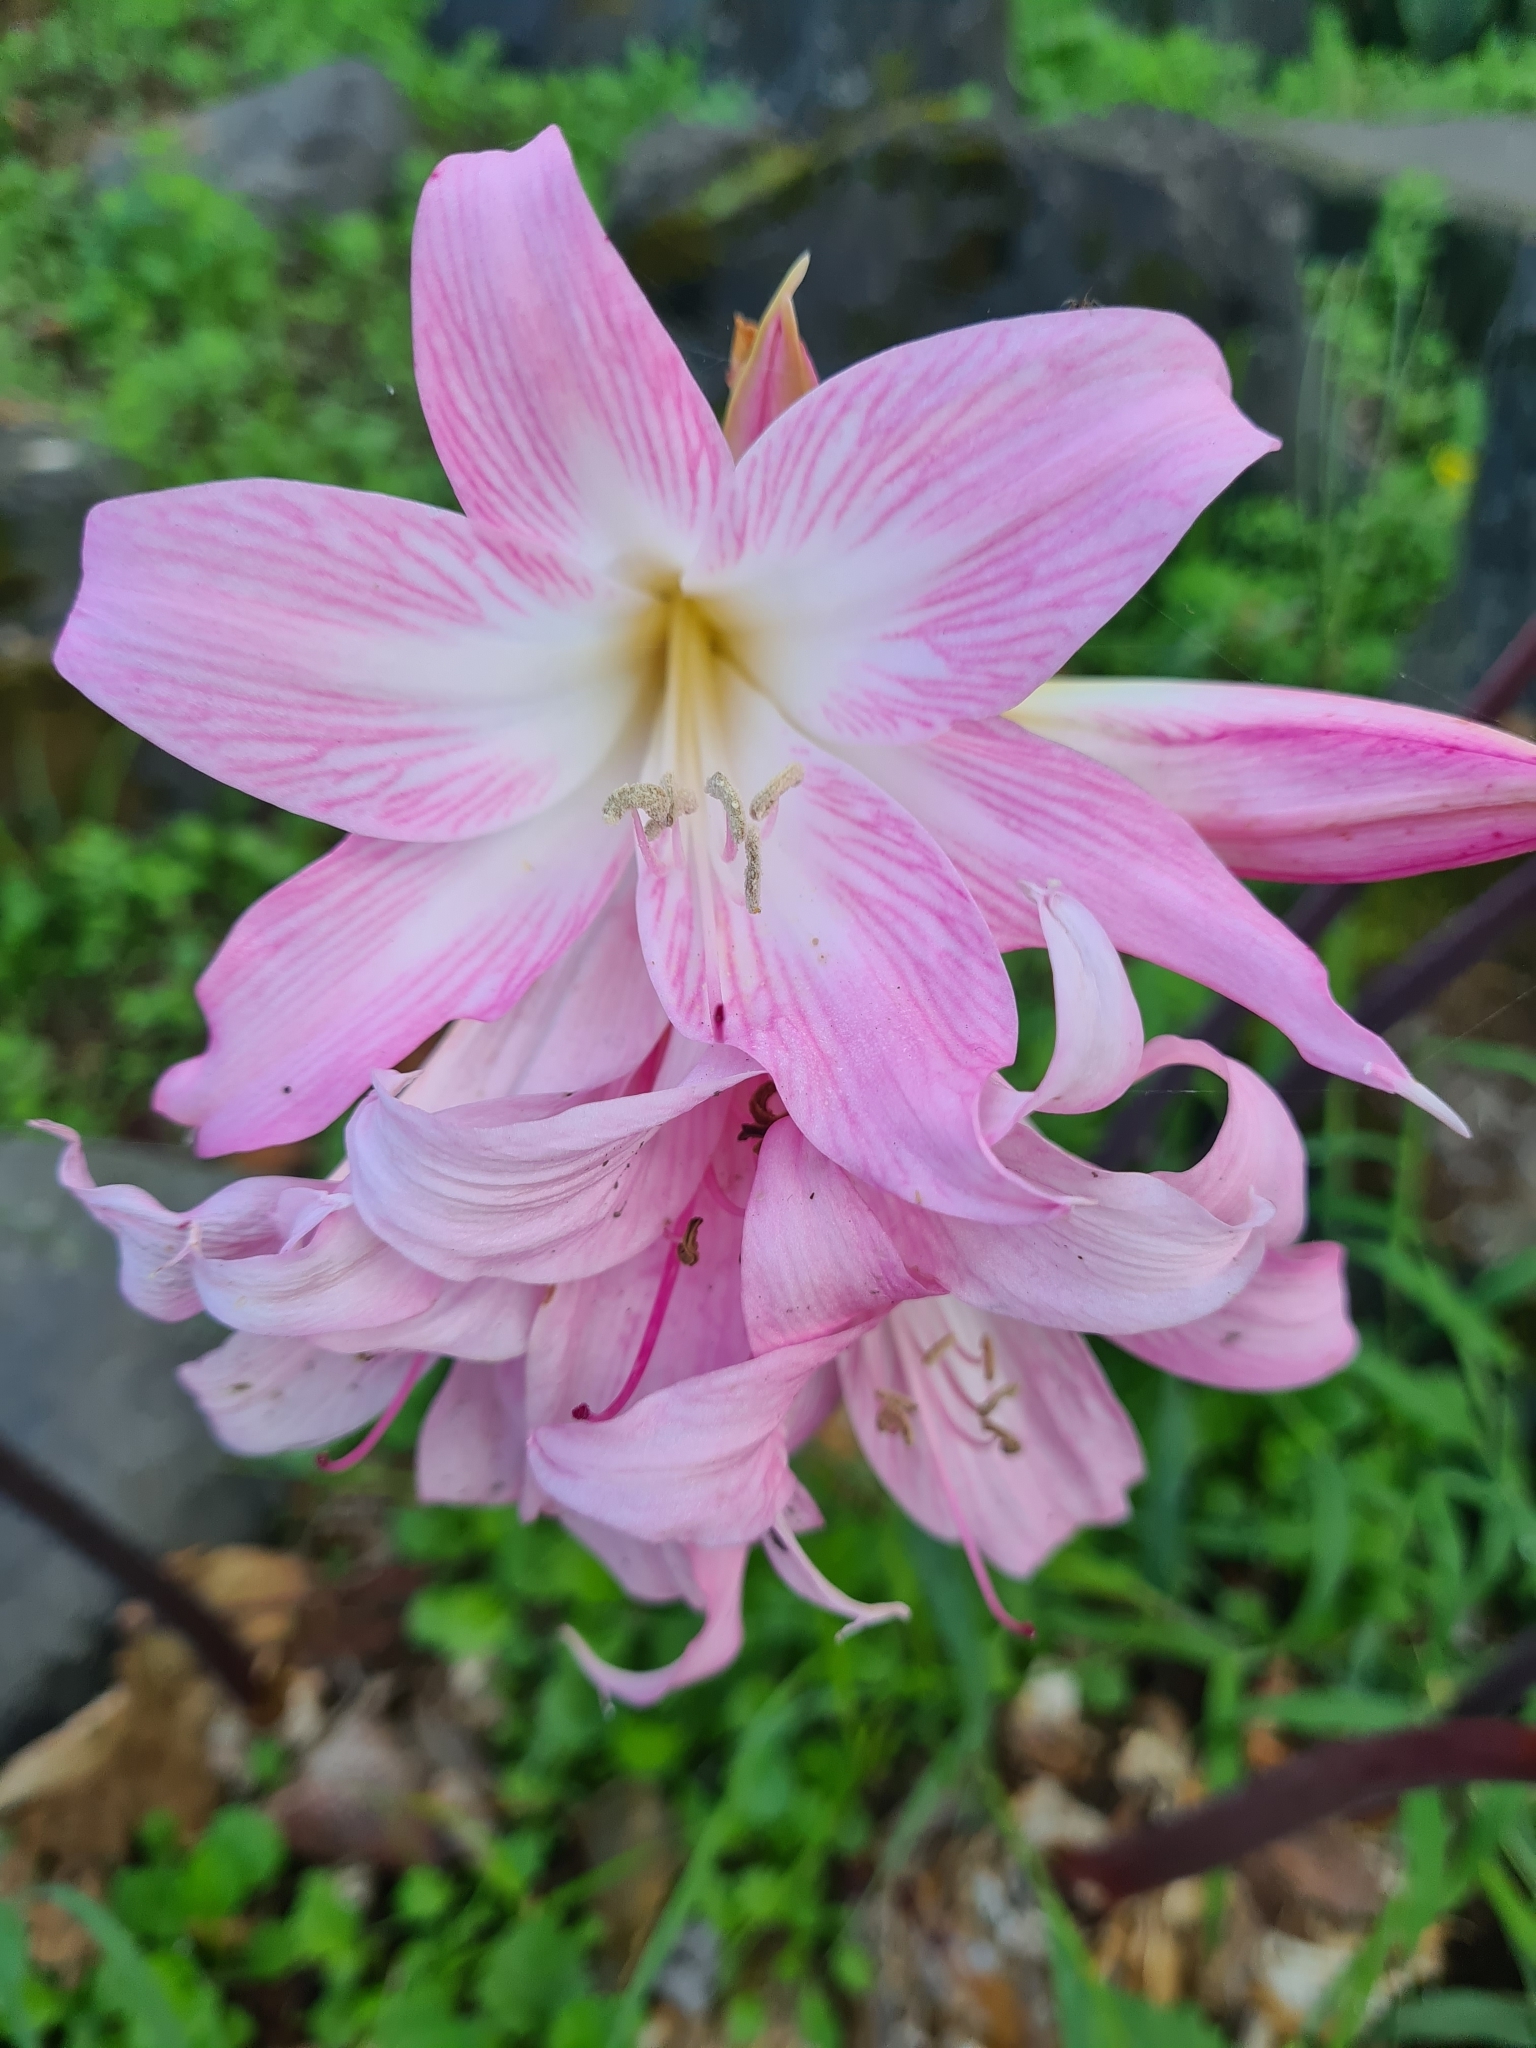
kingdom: Plantae
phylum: Tracheophyta
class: Liliopsida
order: Asparagales
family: Amaryllidaceae
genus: Amaryllis
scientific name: Amaryllis belladonna
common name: Jersey lily
